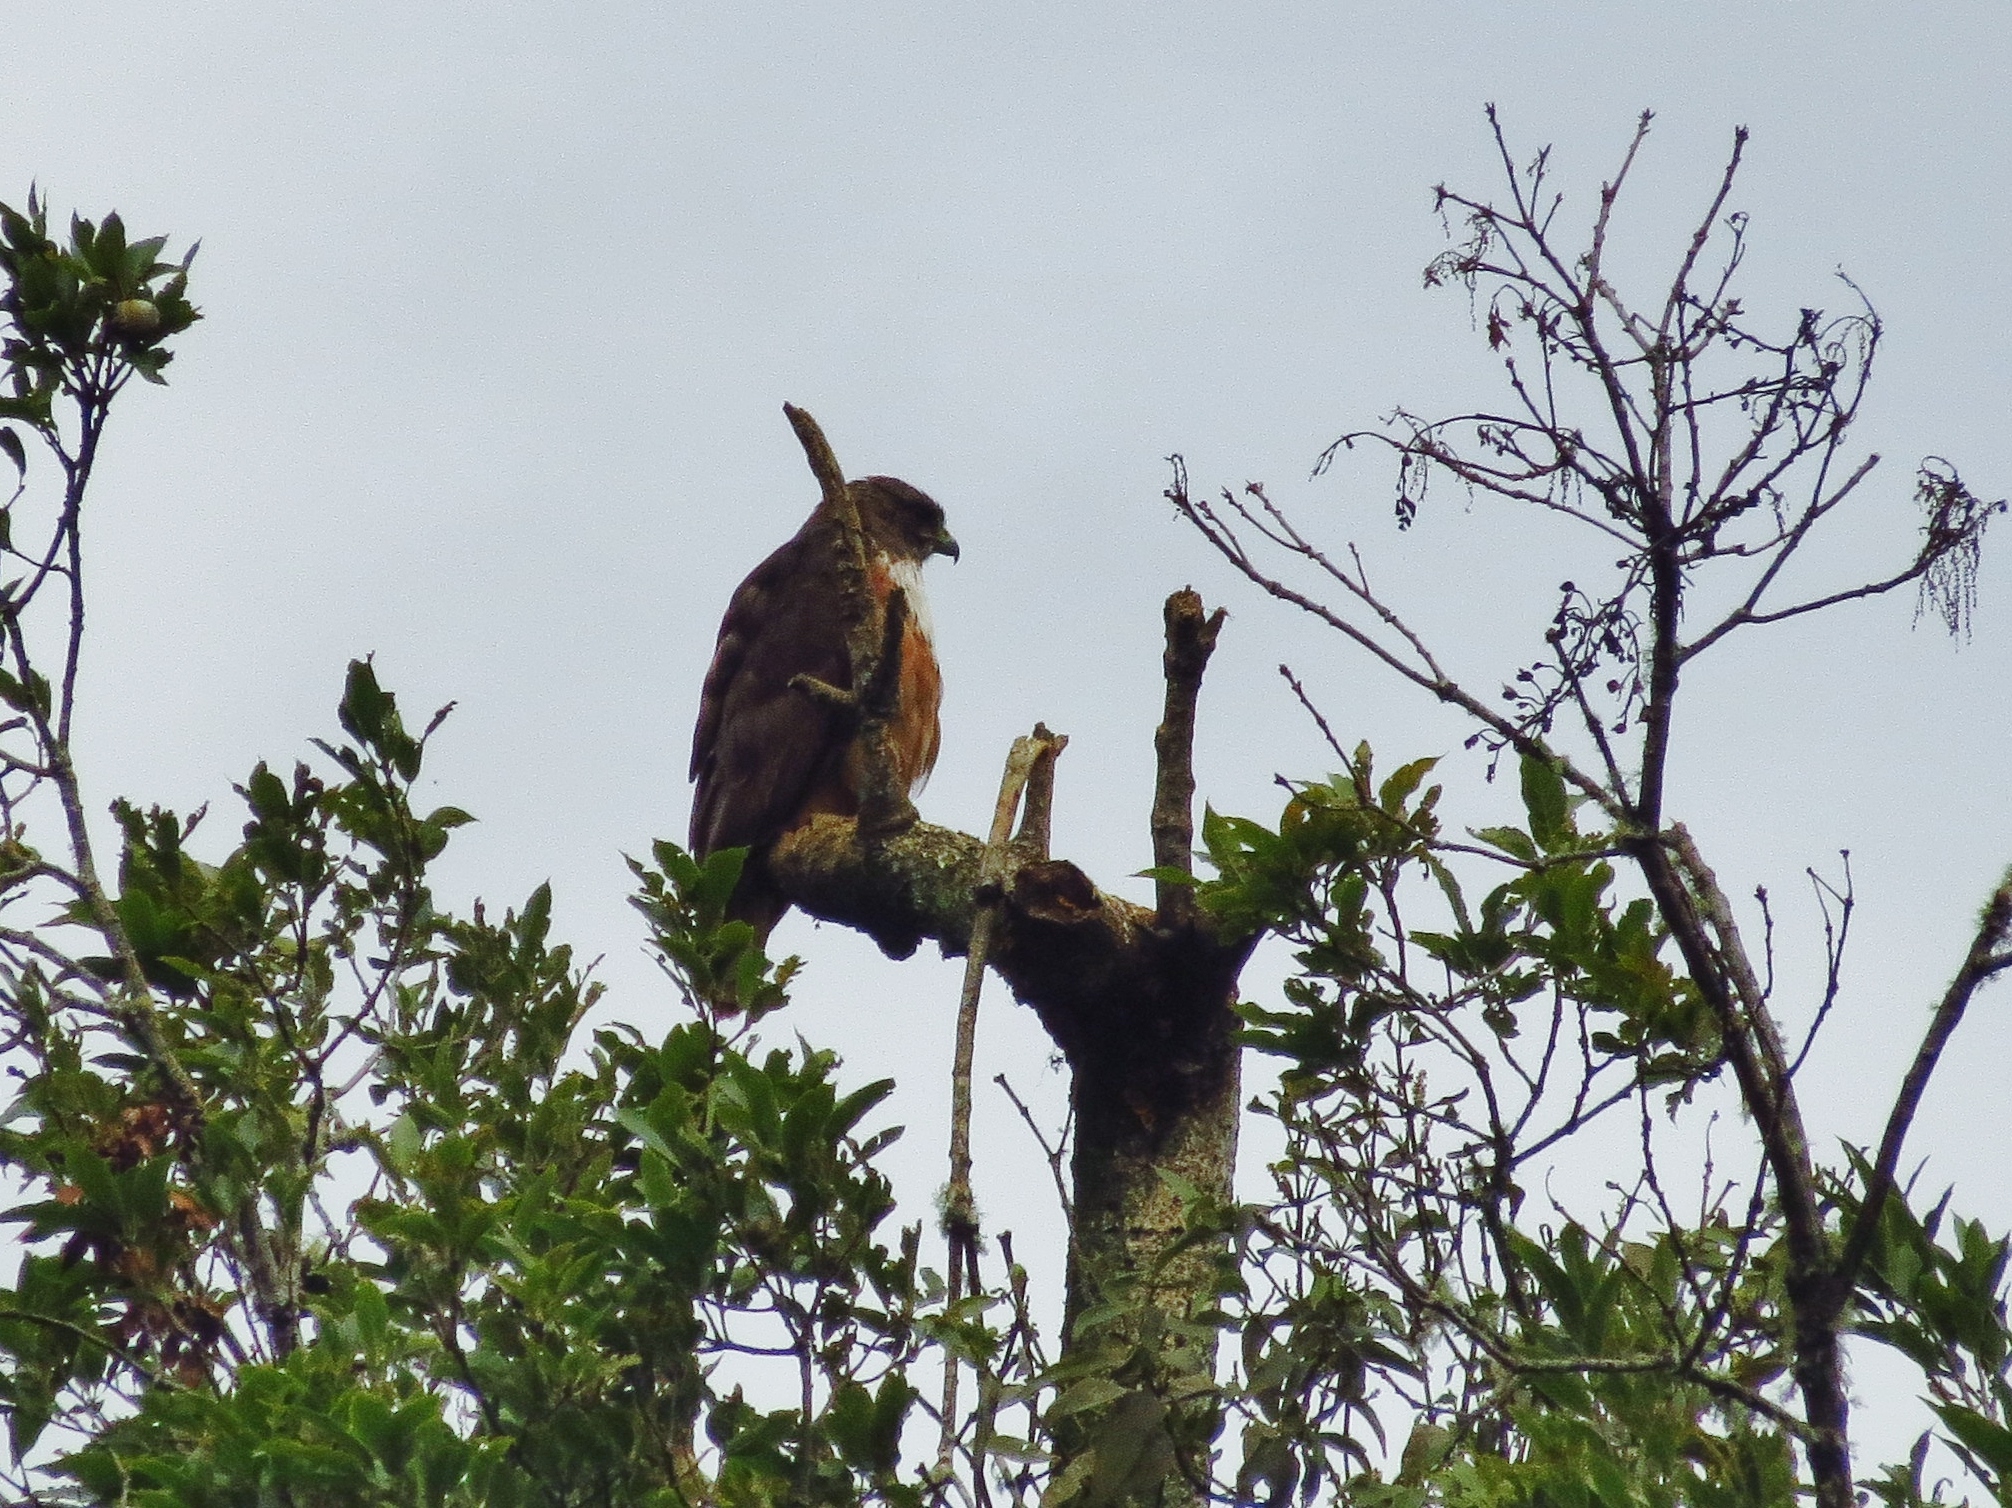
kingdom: Animalia
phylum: Chordata
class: Aves
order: Accipitriformes
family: Accipitridae
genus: Buteo
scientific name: Buteo jamaicensis
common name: Red-tailed hawk
